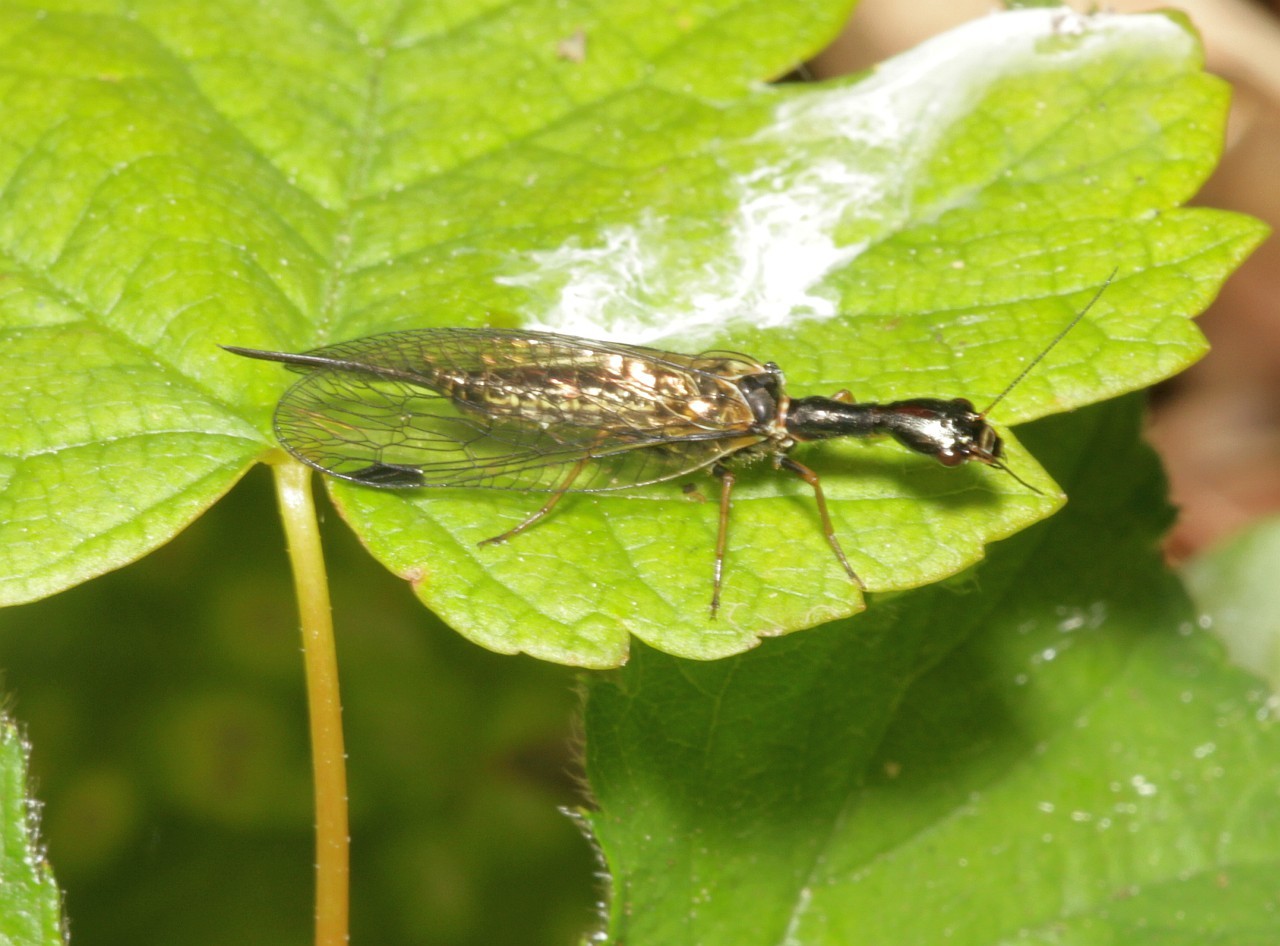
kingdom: Animalia
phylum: Arthropoda
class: Insecta
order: Raphidioptera
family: Raphidiidae
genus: Phaeostigma
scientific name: Phaeostigma notatum
